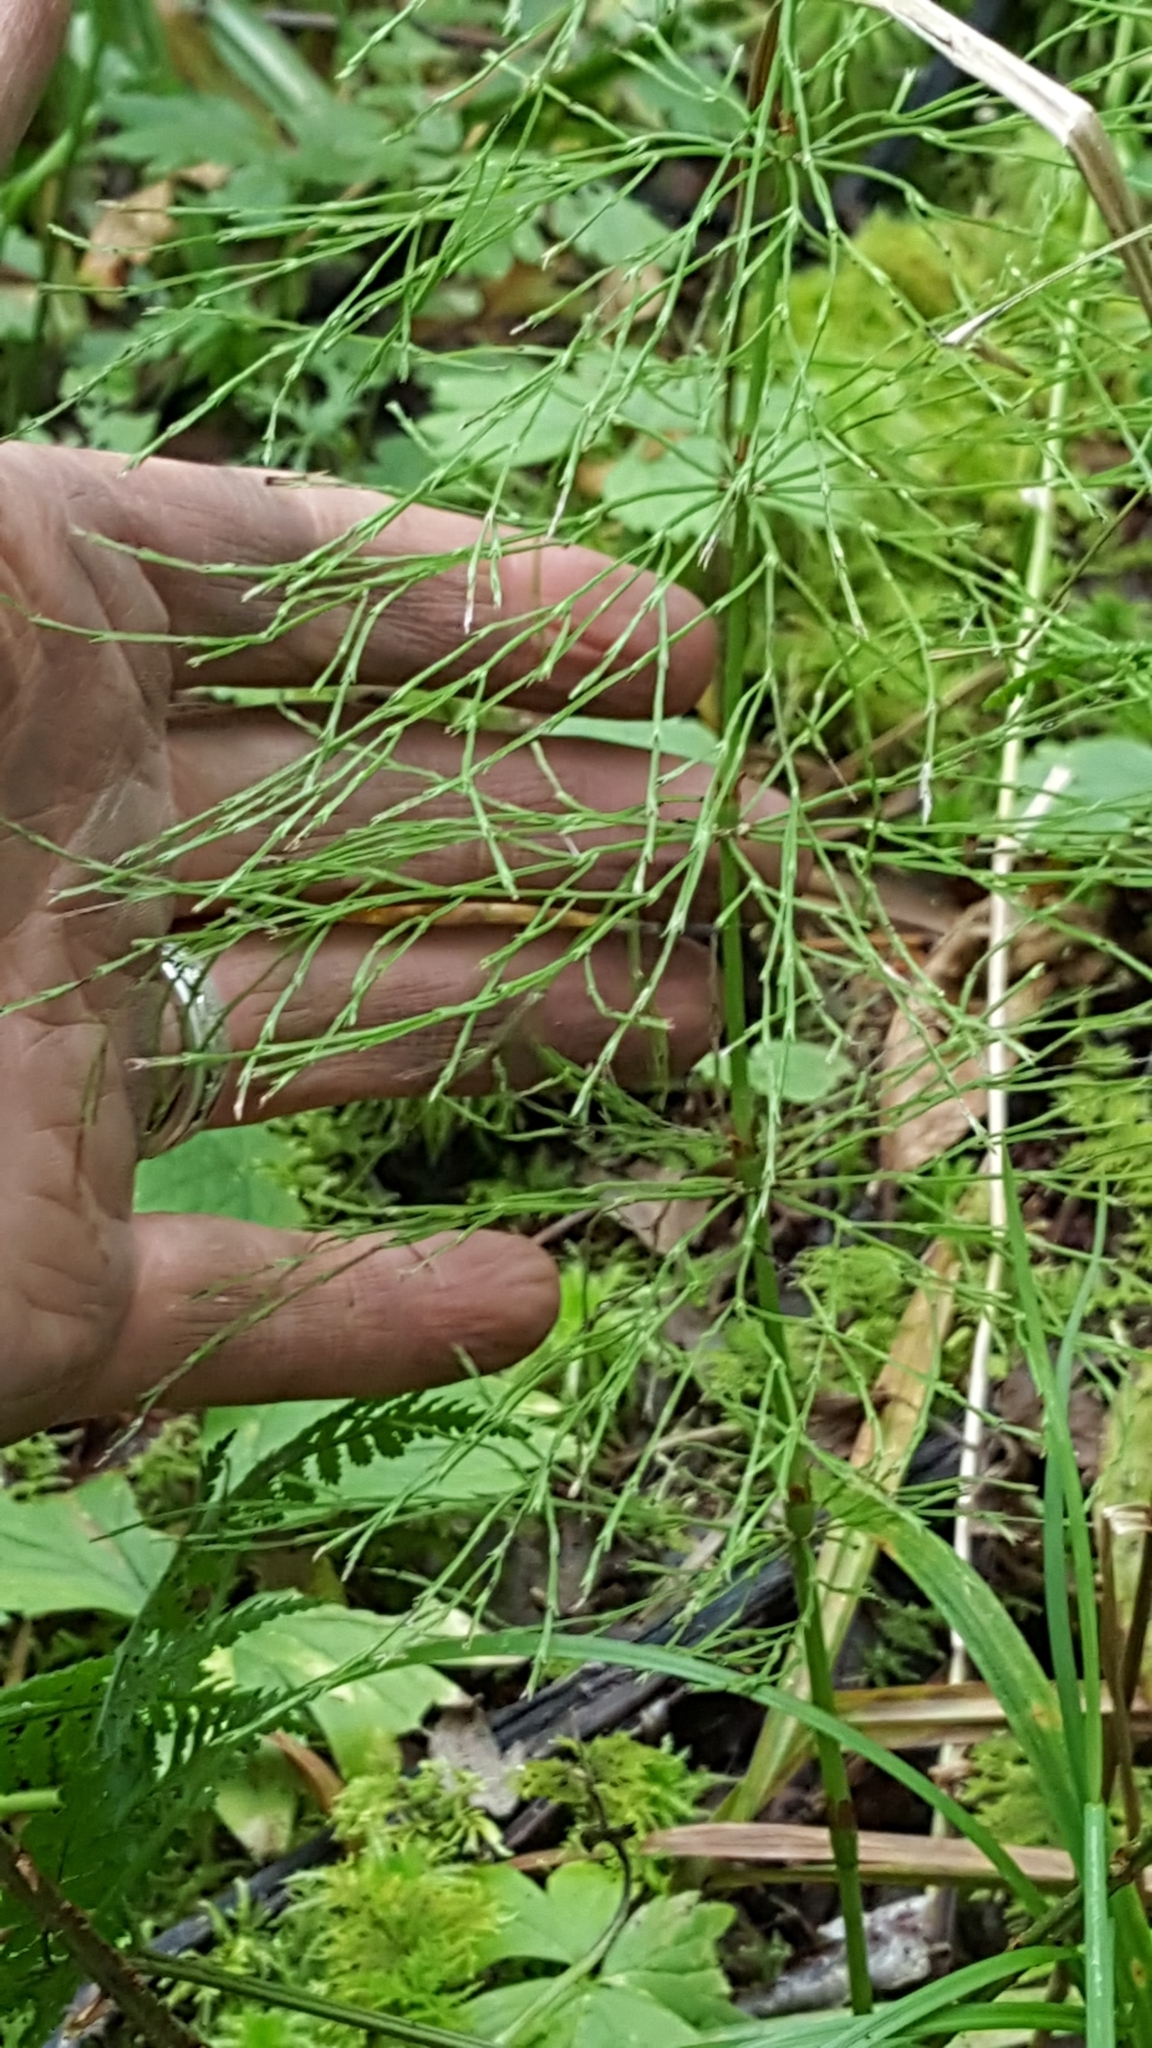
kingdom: Plantae
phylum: Tracheophyta
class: Polypodiopsida
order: Equisetales
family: Equisetaceae
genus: Equisetum
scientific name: Equisetum sylvaticum
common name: Wood horsetail
